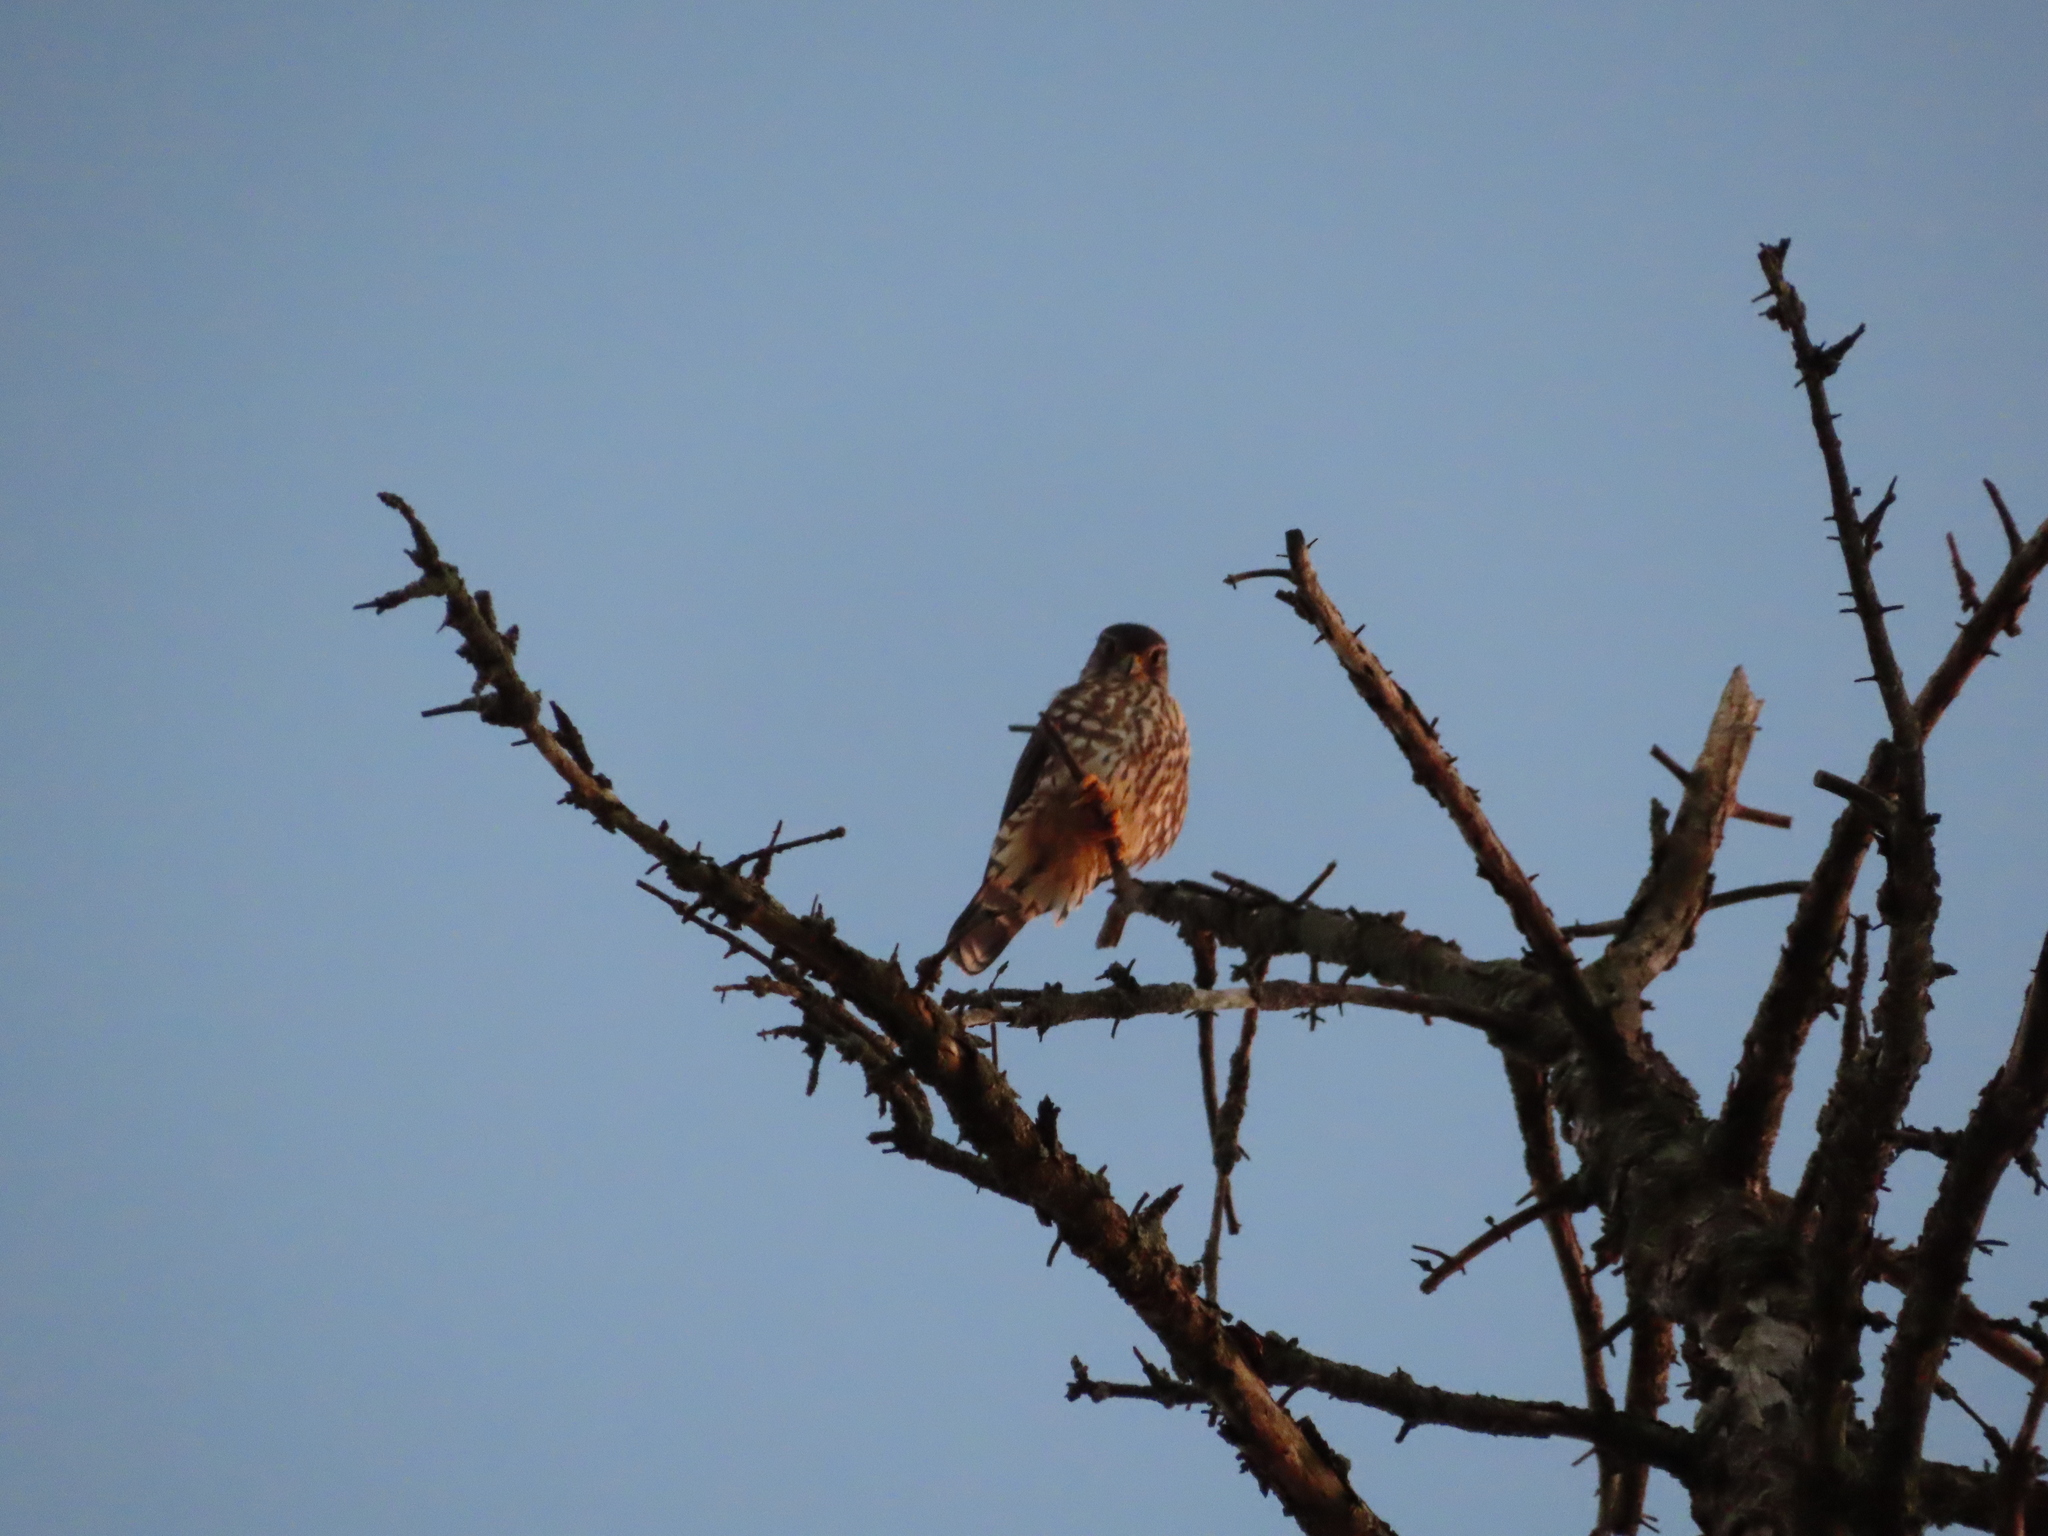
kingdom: Animalia
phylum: Chordata
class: Aves
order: Falconiformes
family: Falconidae
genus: Falco
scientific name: Falco columbarius
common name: Merlin
